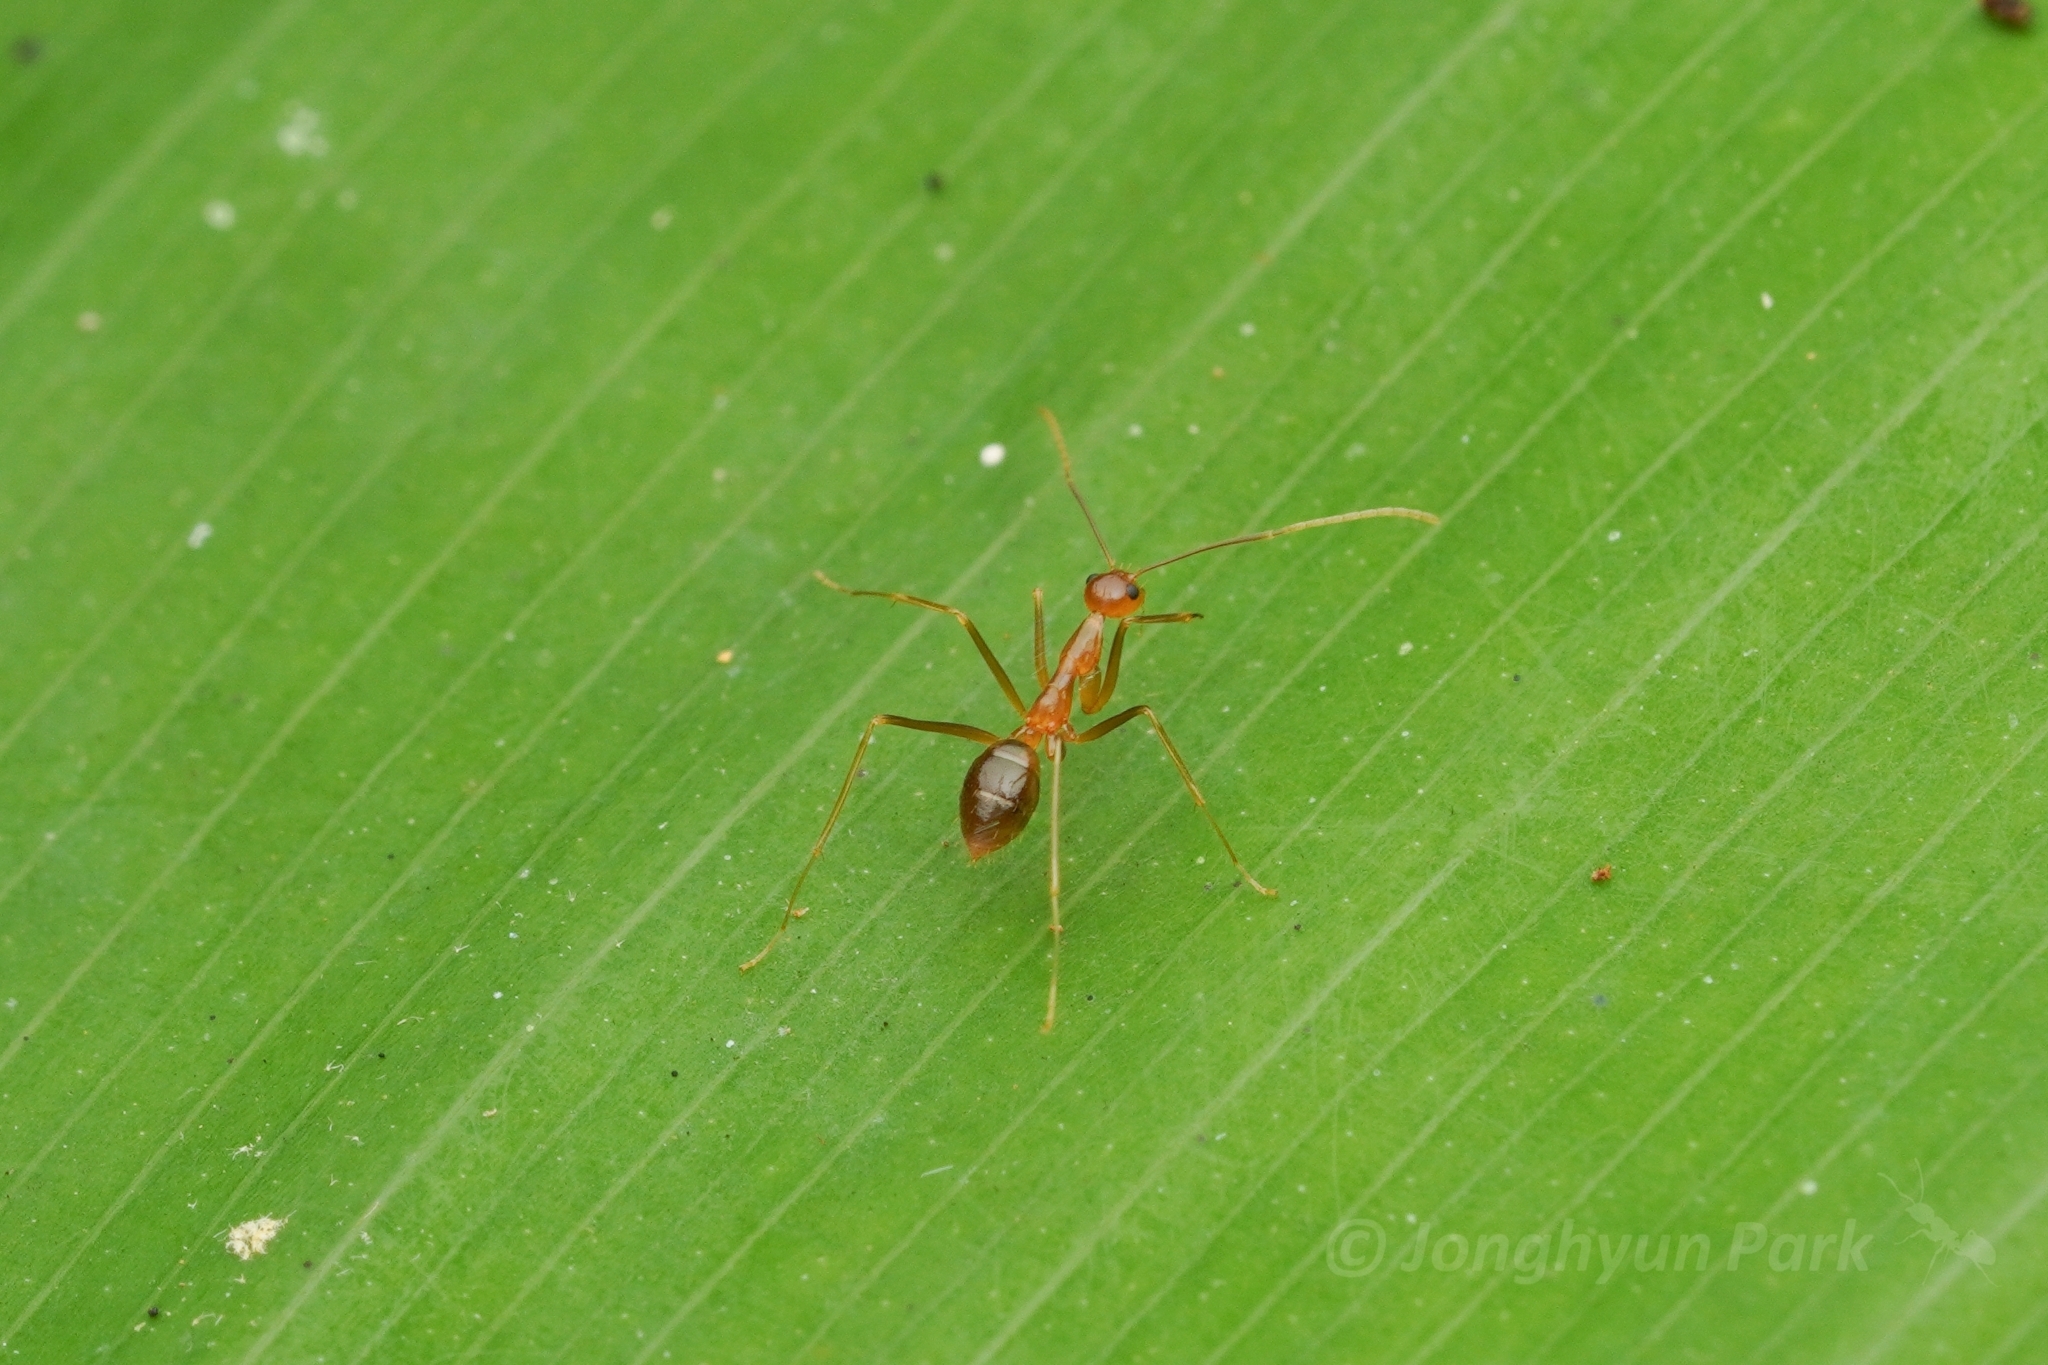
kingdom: Animalia
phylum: Arthropoda
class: Insecta
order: Hymenoptera
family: Formicidae
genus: Anoplolepis
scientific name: Anoplolepis gracilipes
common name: Ant
